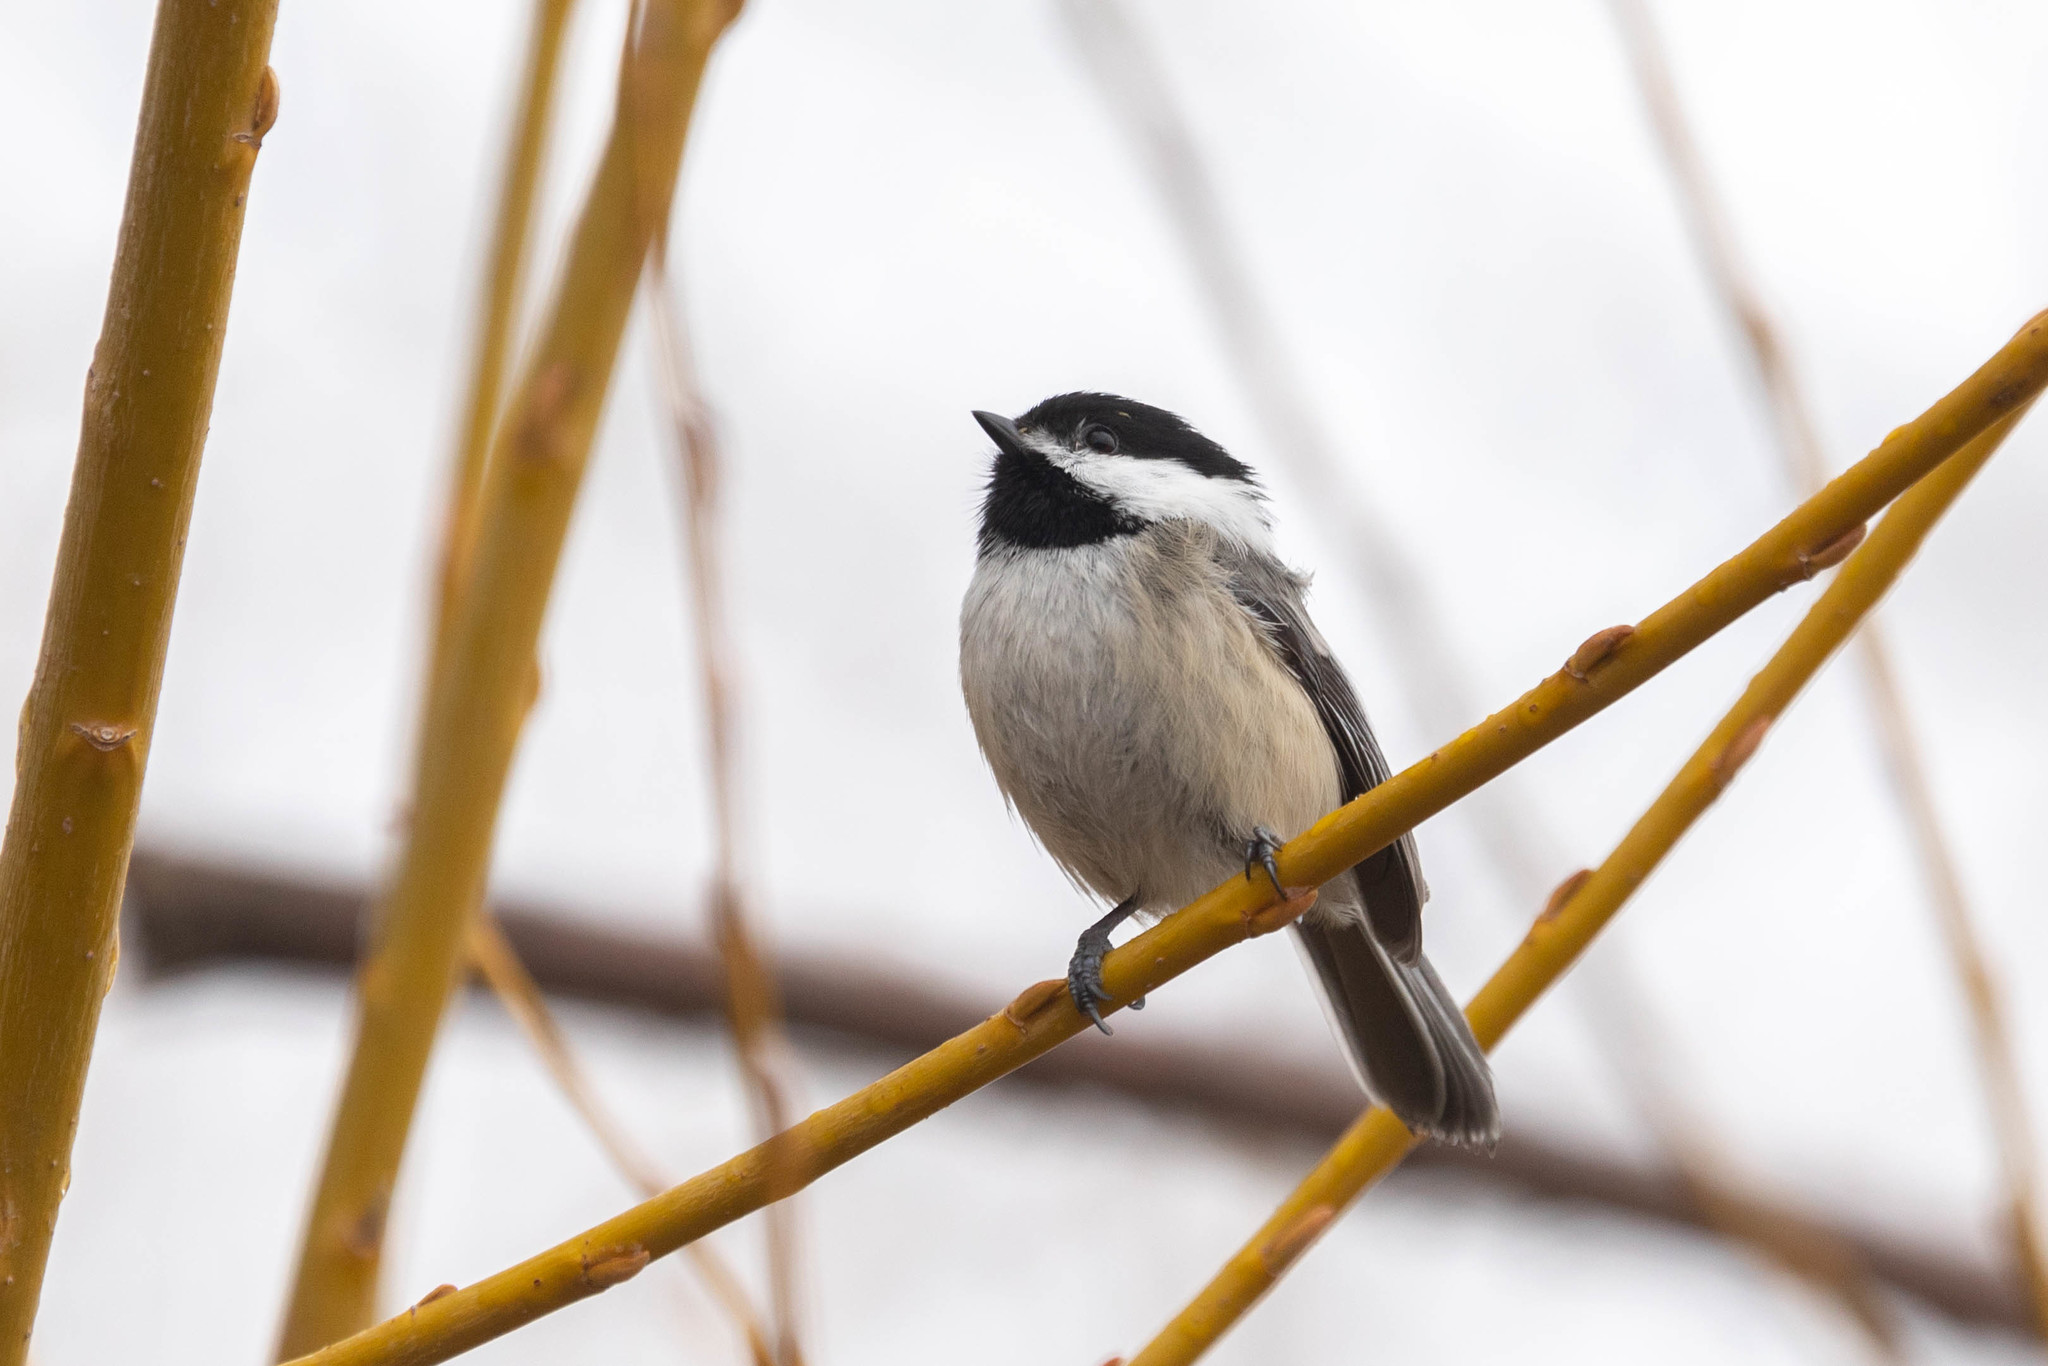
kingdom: Animalia
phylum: Chordata
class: Aves
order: Passeriformes
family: Paridae
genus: Poecile
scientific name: Poecile atricapillus
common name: Black-capped chickadee
